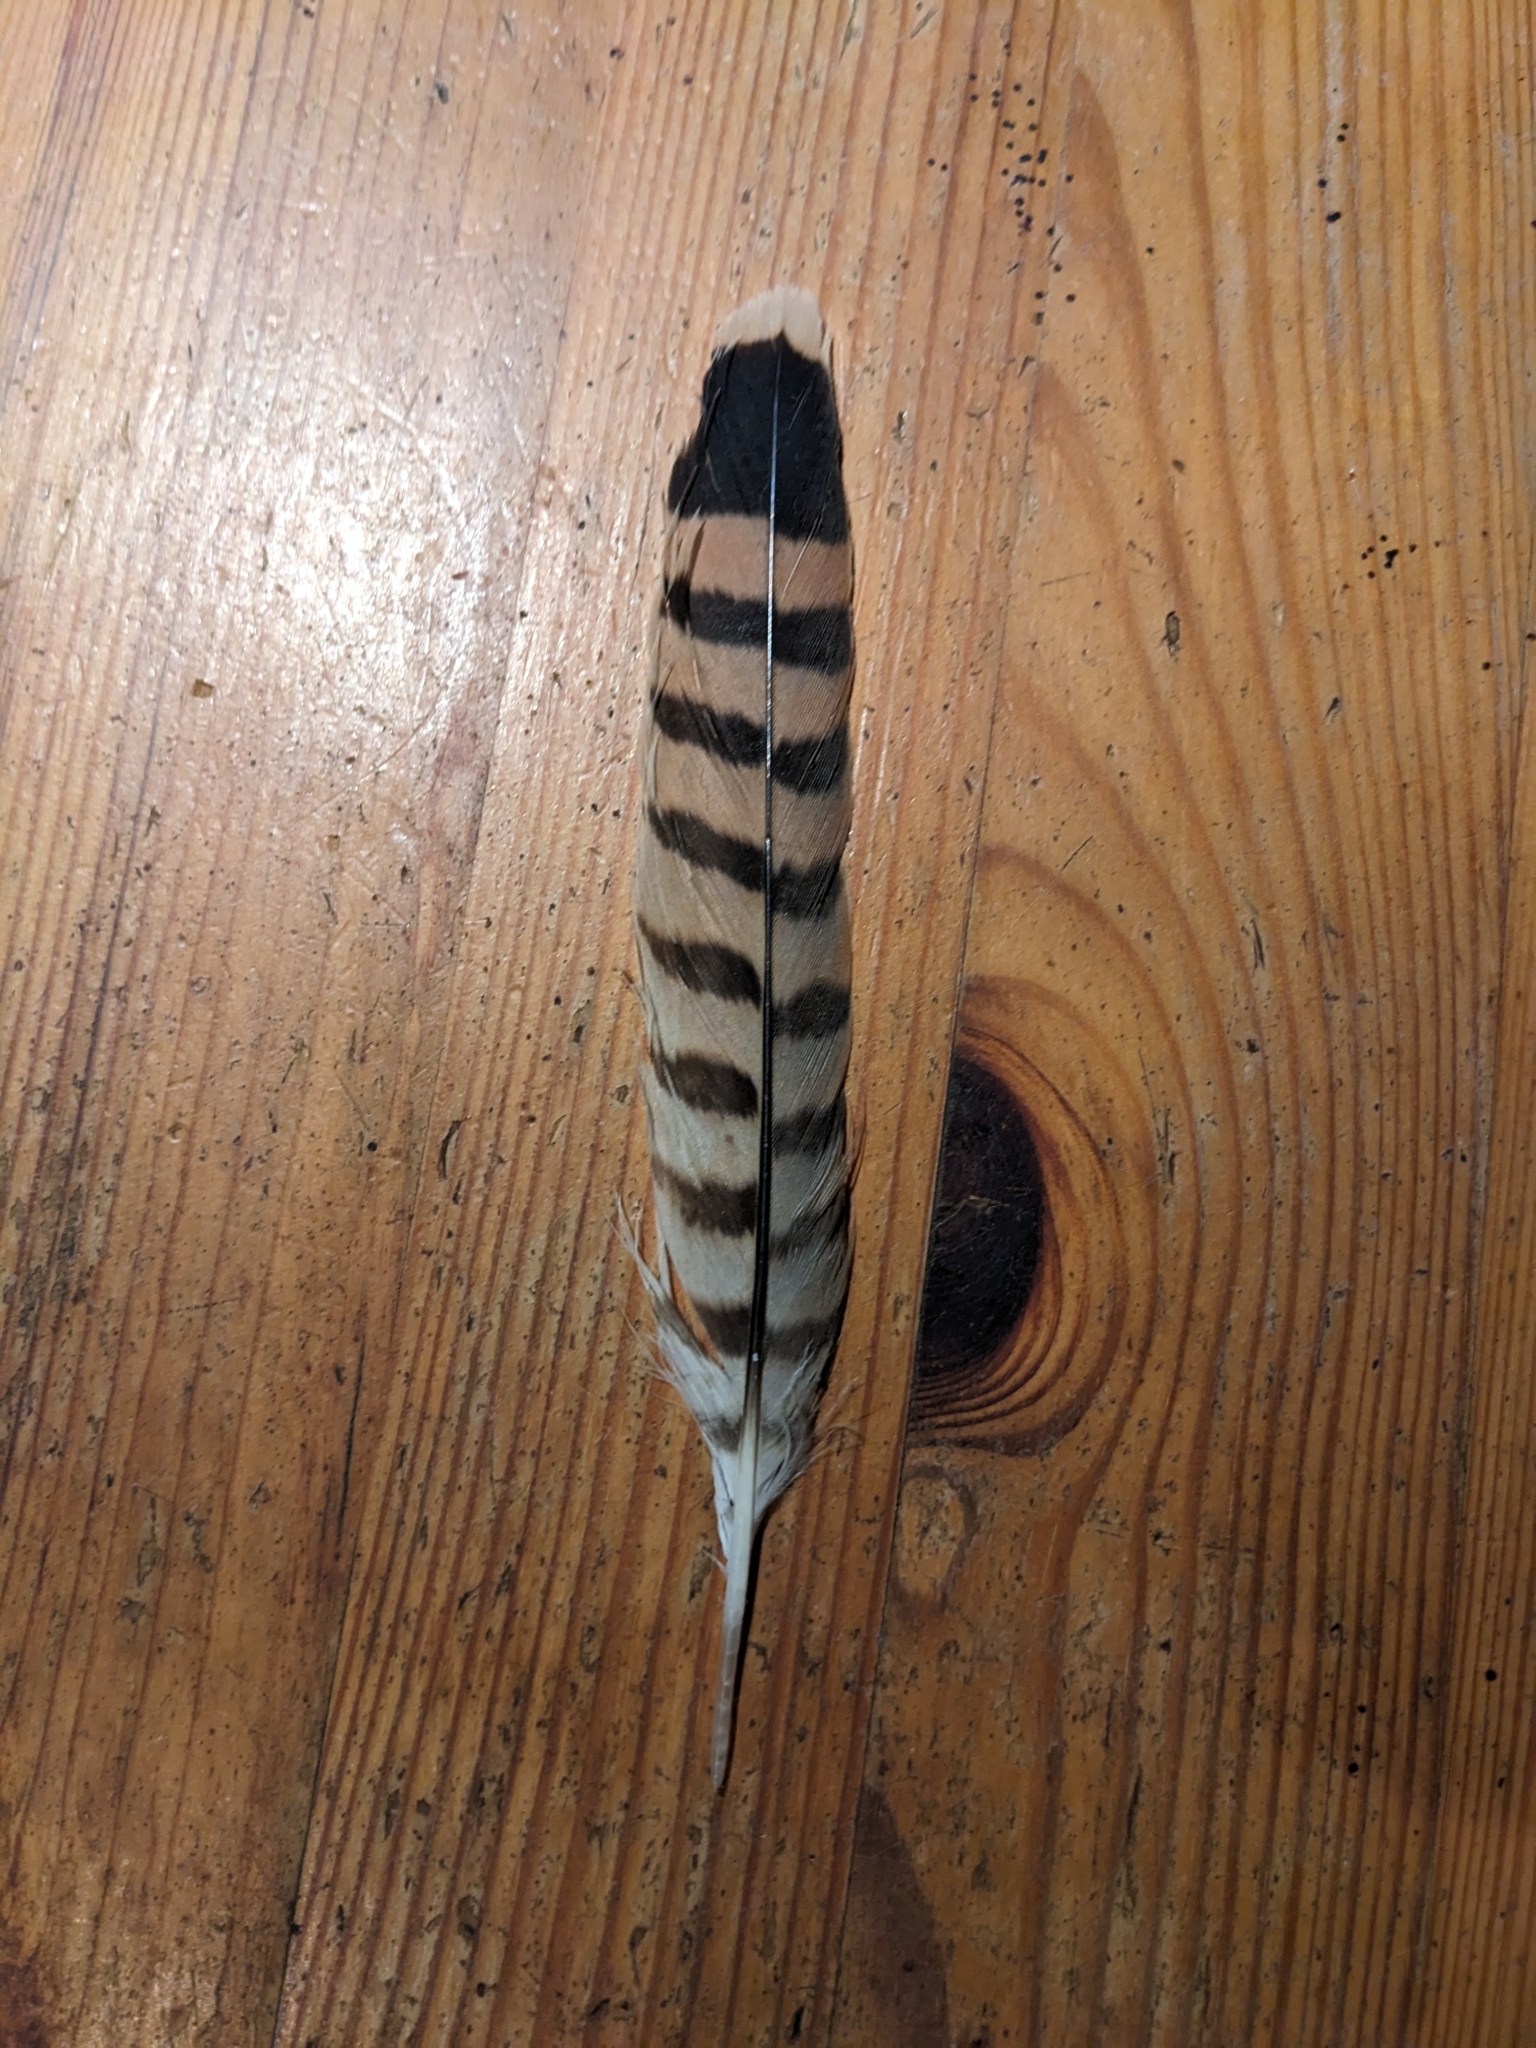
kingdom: Animalia
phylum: Chordata
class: Aves
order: Falconiformes
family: Falconidae
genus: Falco
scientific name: Falco tinnunculus
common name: Common kestrel
